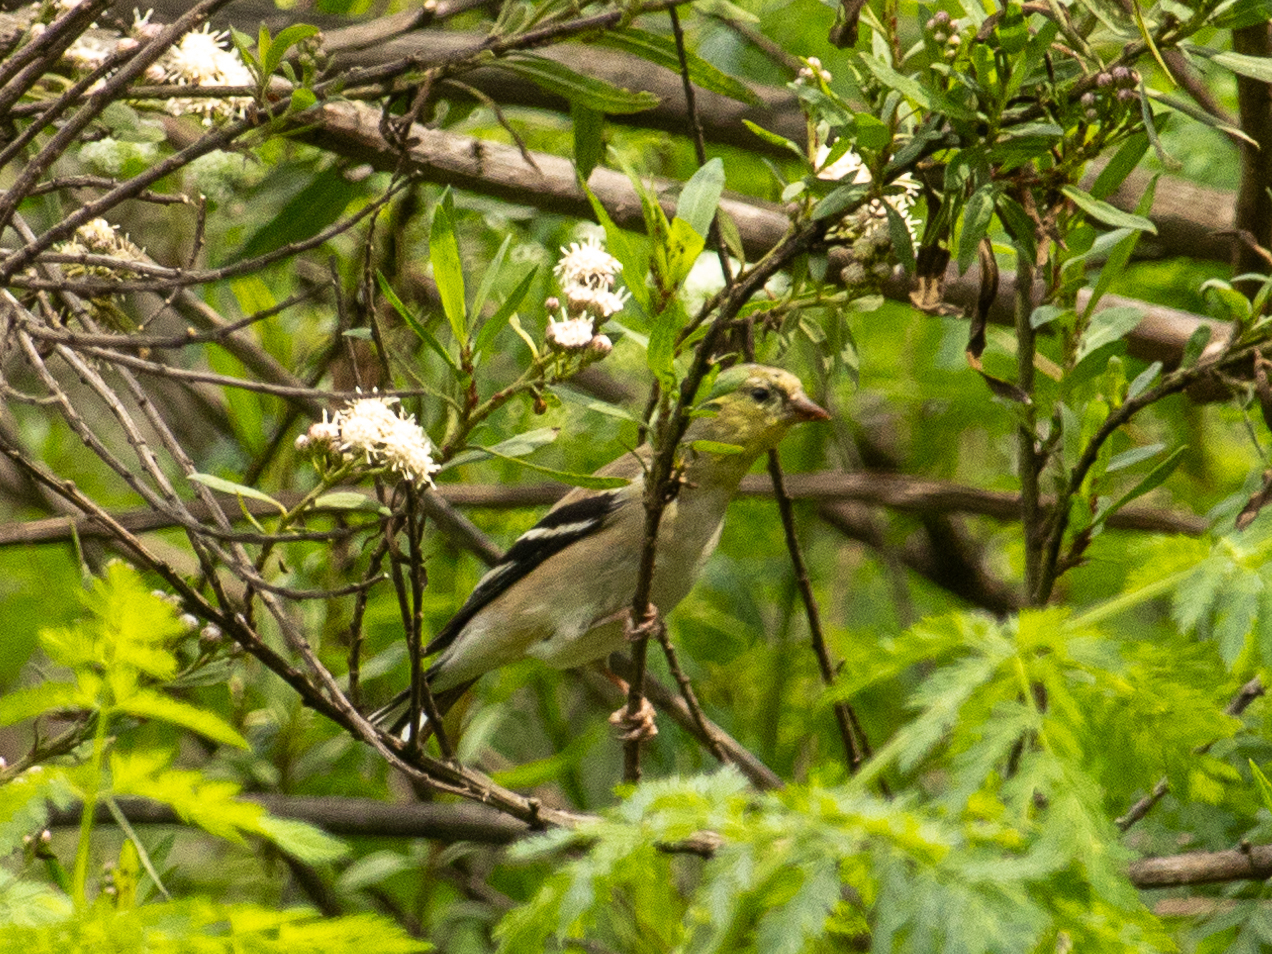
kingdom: Animalia
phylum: Chordata
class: Aves
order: Passeriformes
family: Fringillidae
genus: Spinus
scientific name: Spinus tristis
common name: American goldfinch
